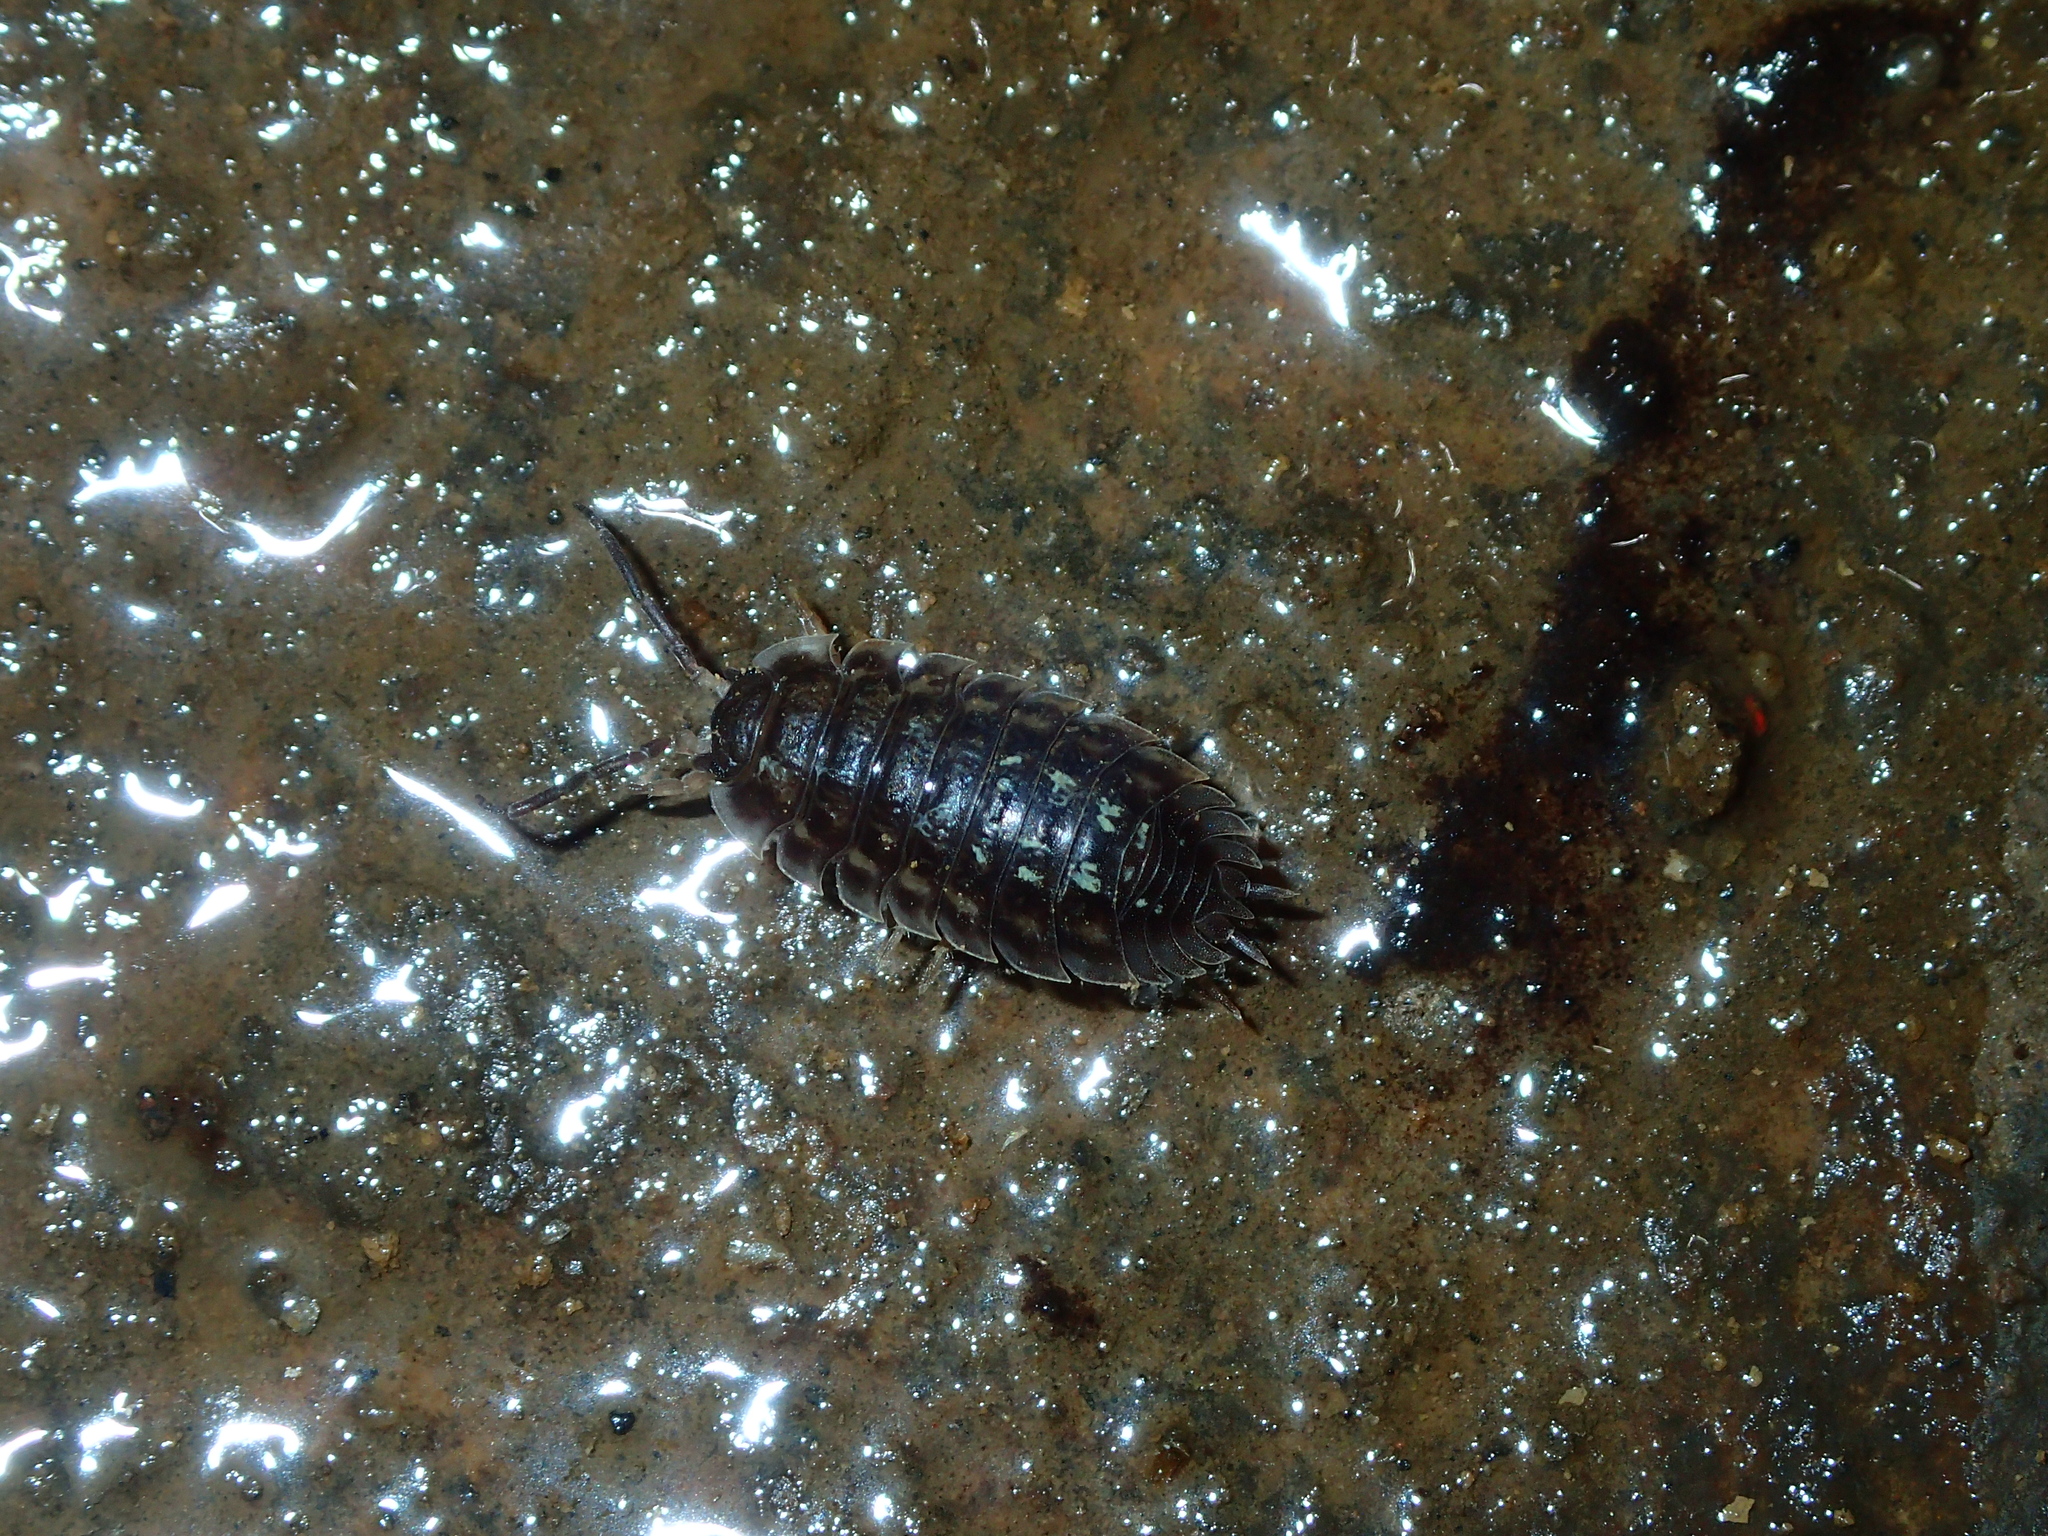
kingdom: Animalia
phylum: Arthropoda
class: Malacostraca
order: Isopoda
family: Oniscidae
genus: Oniscus
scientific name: Oniscus asellus
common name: Common shiny woodlouse
